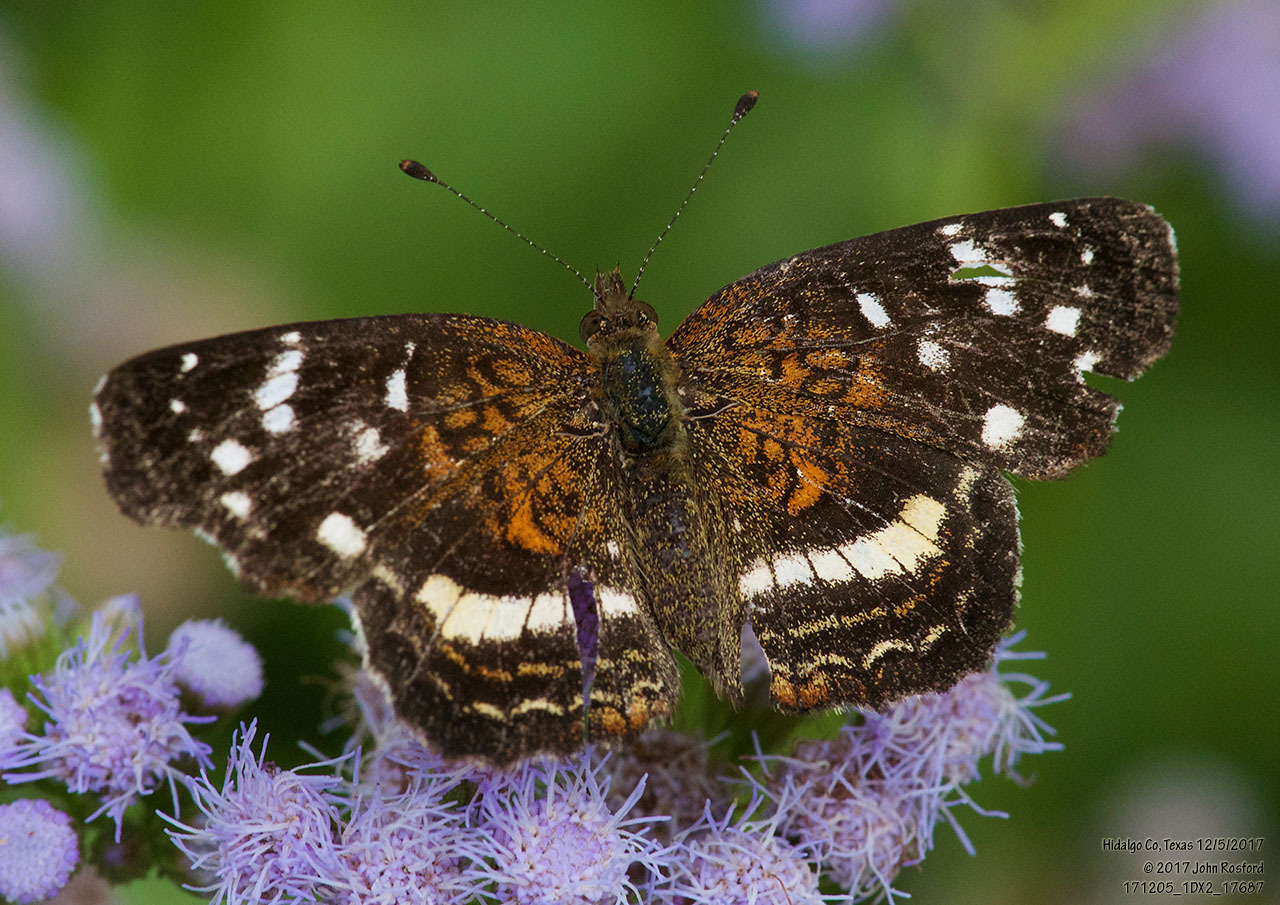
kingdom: Animalia
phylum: Arthropoda
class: Insecta
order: Lepidoptera
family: Nymphalidae
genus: Anthanassa
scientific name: Anthanassa argentea
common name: Chestnut crescent
